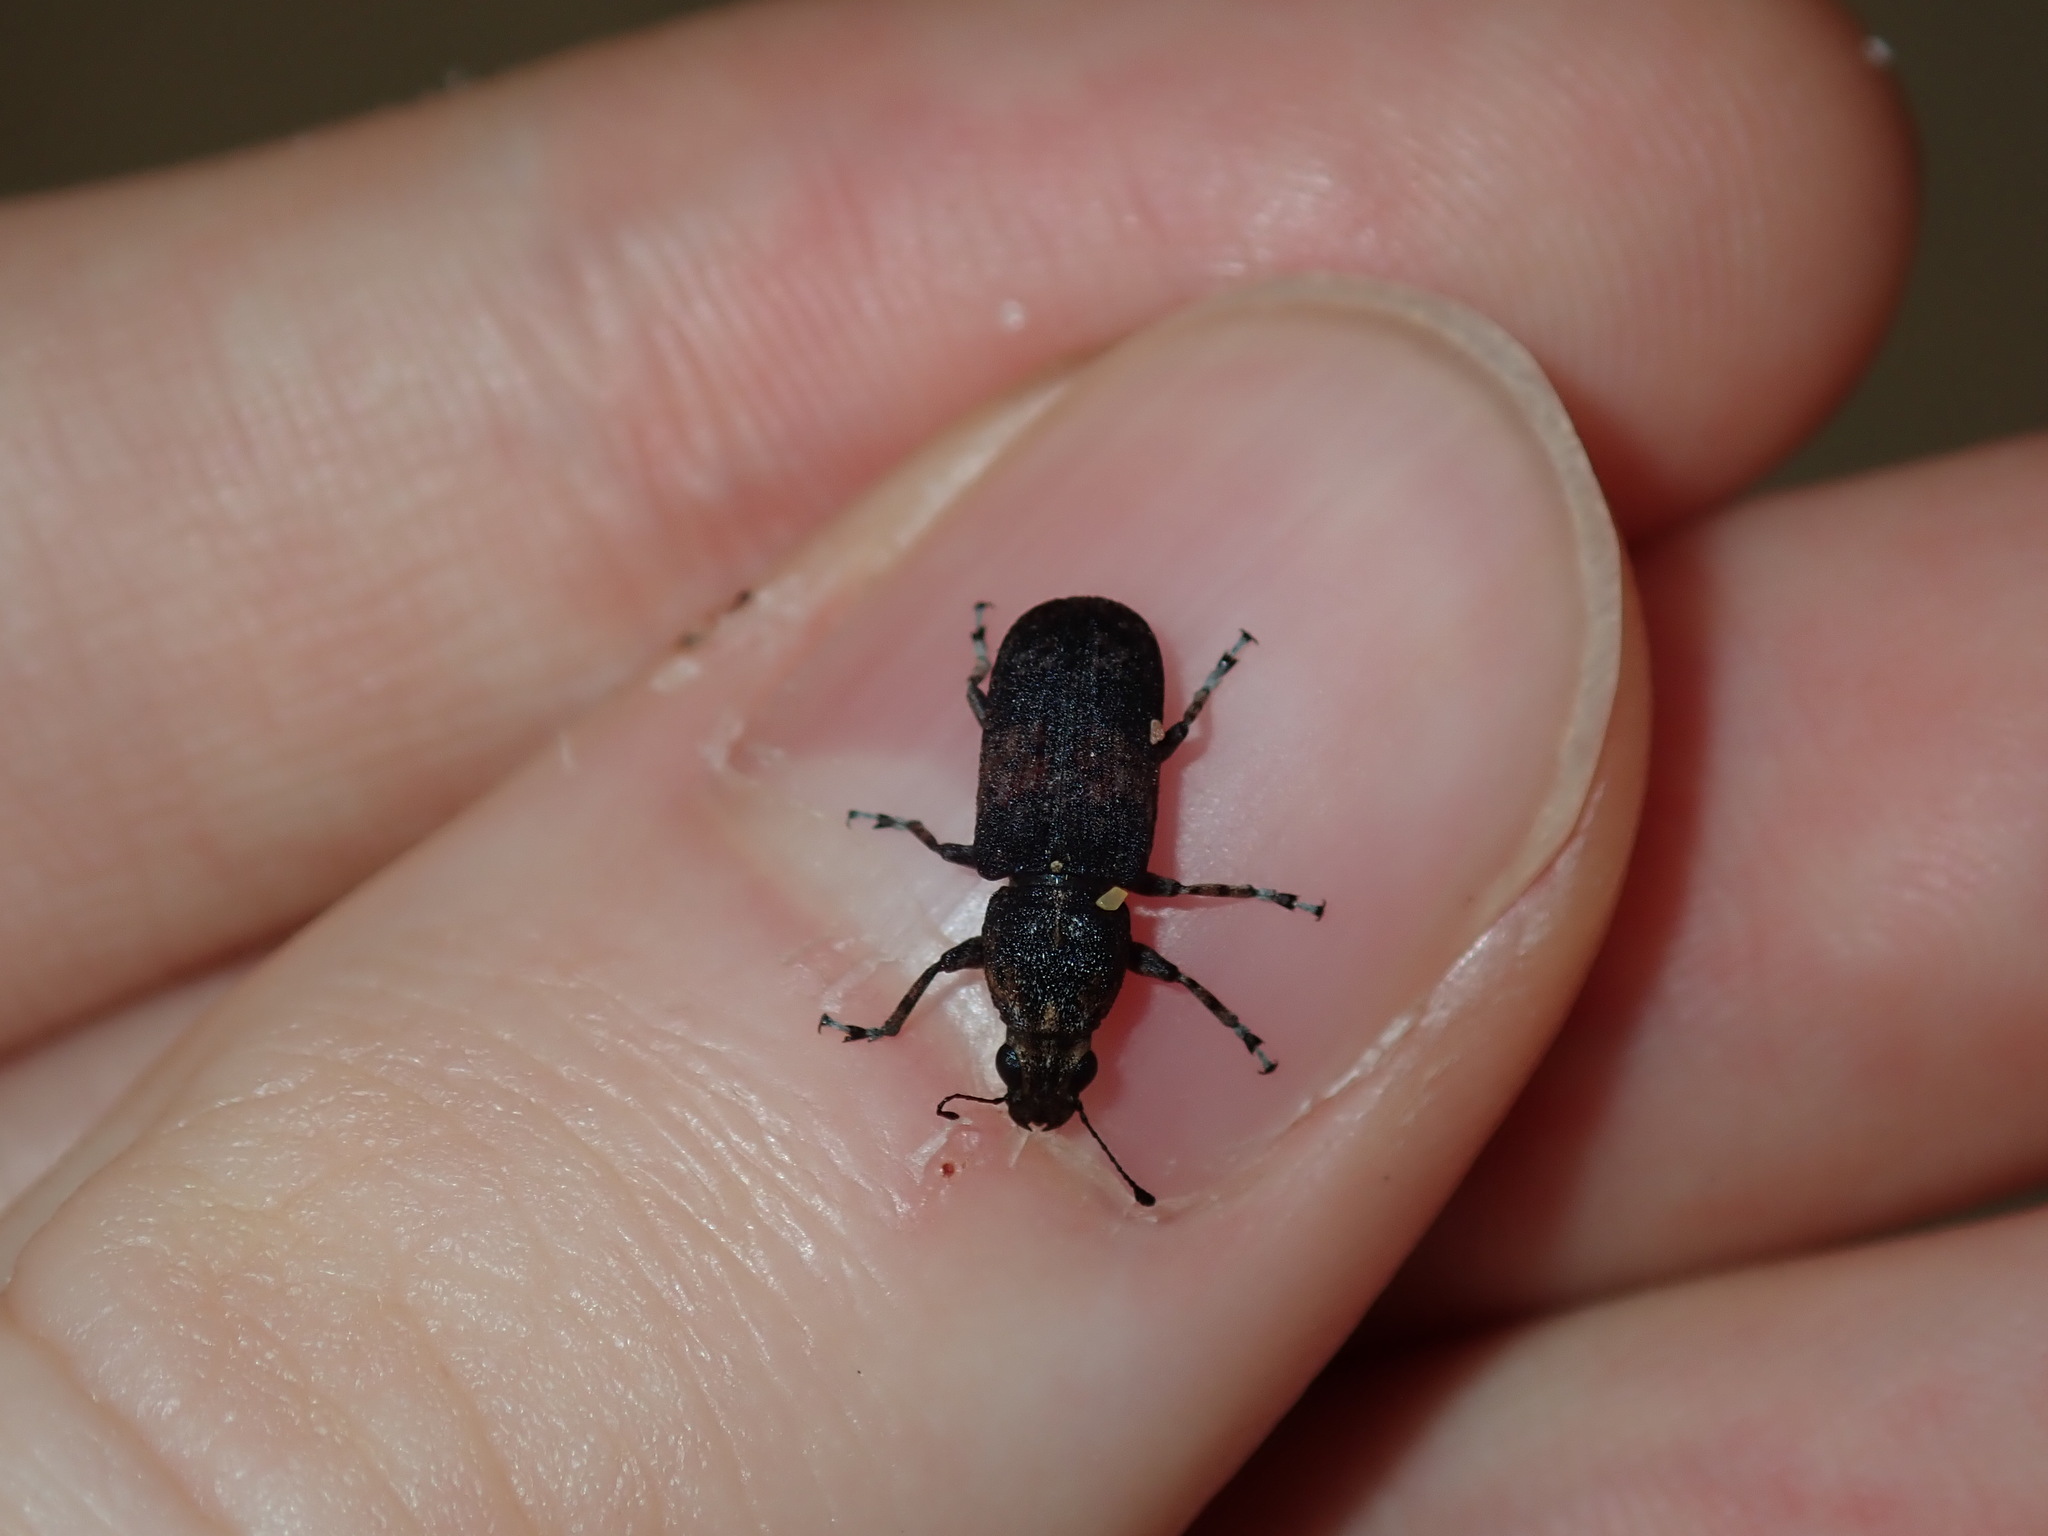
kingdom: Animalia
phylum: Arthropoda
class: Insecta
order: Coleoptera
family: Anthribidae
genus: Ecelonerus
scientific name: Ecelonerus subfasciatus
